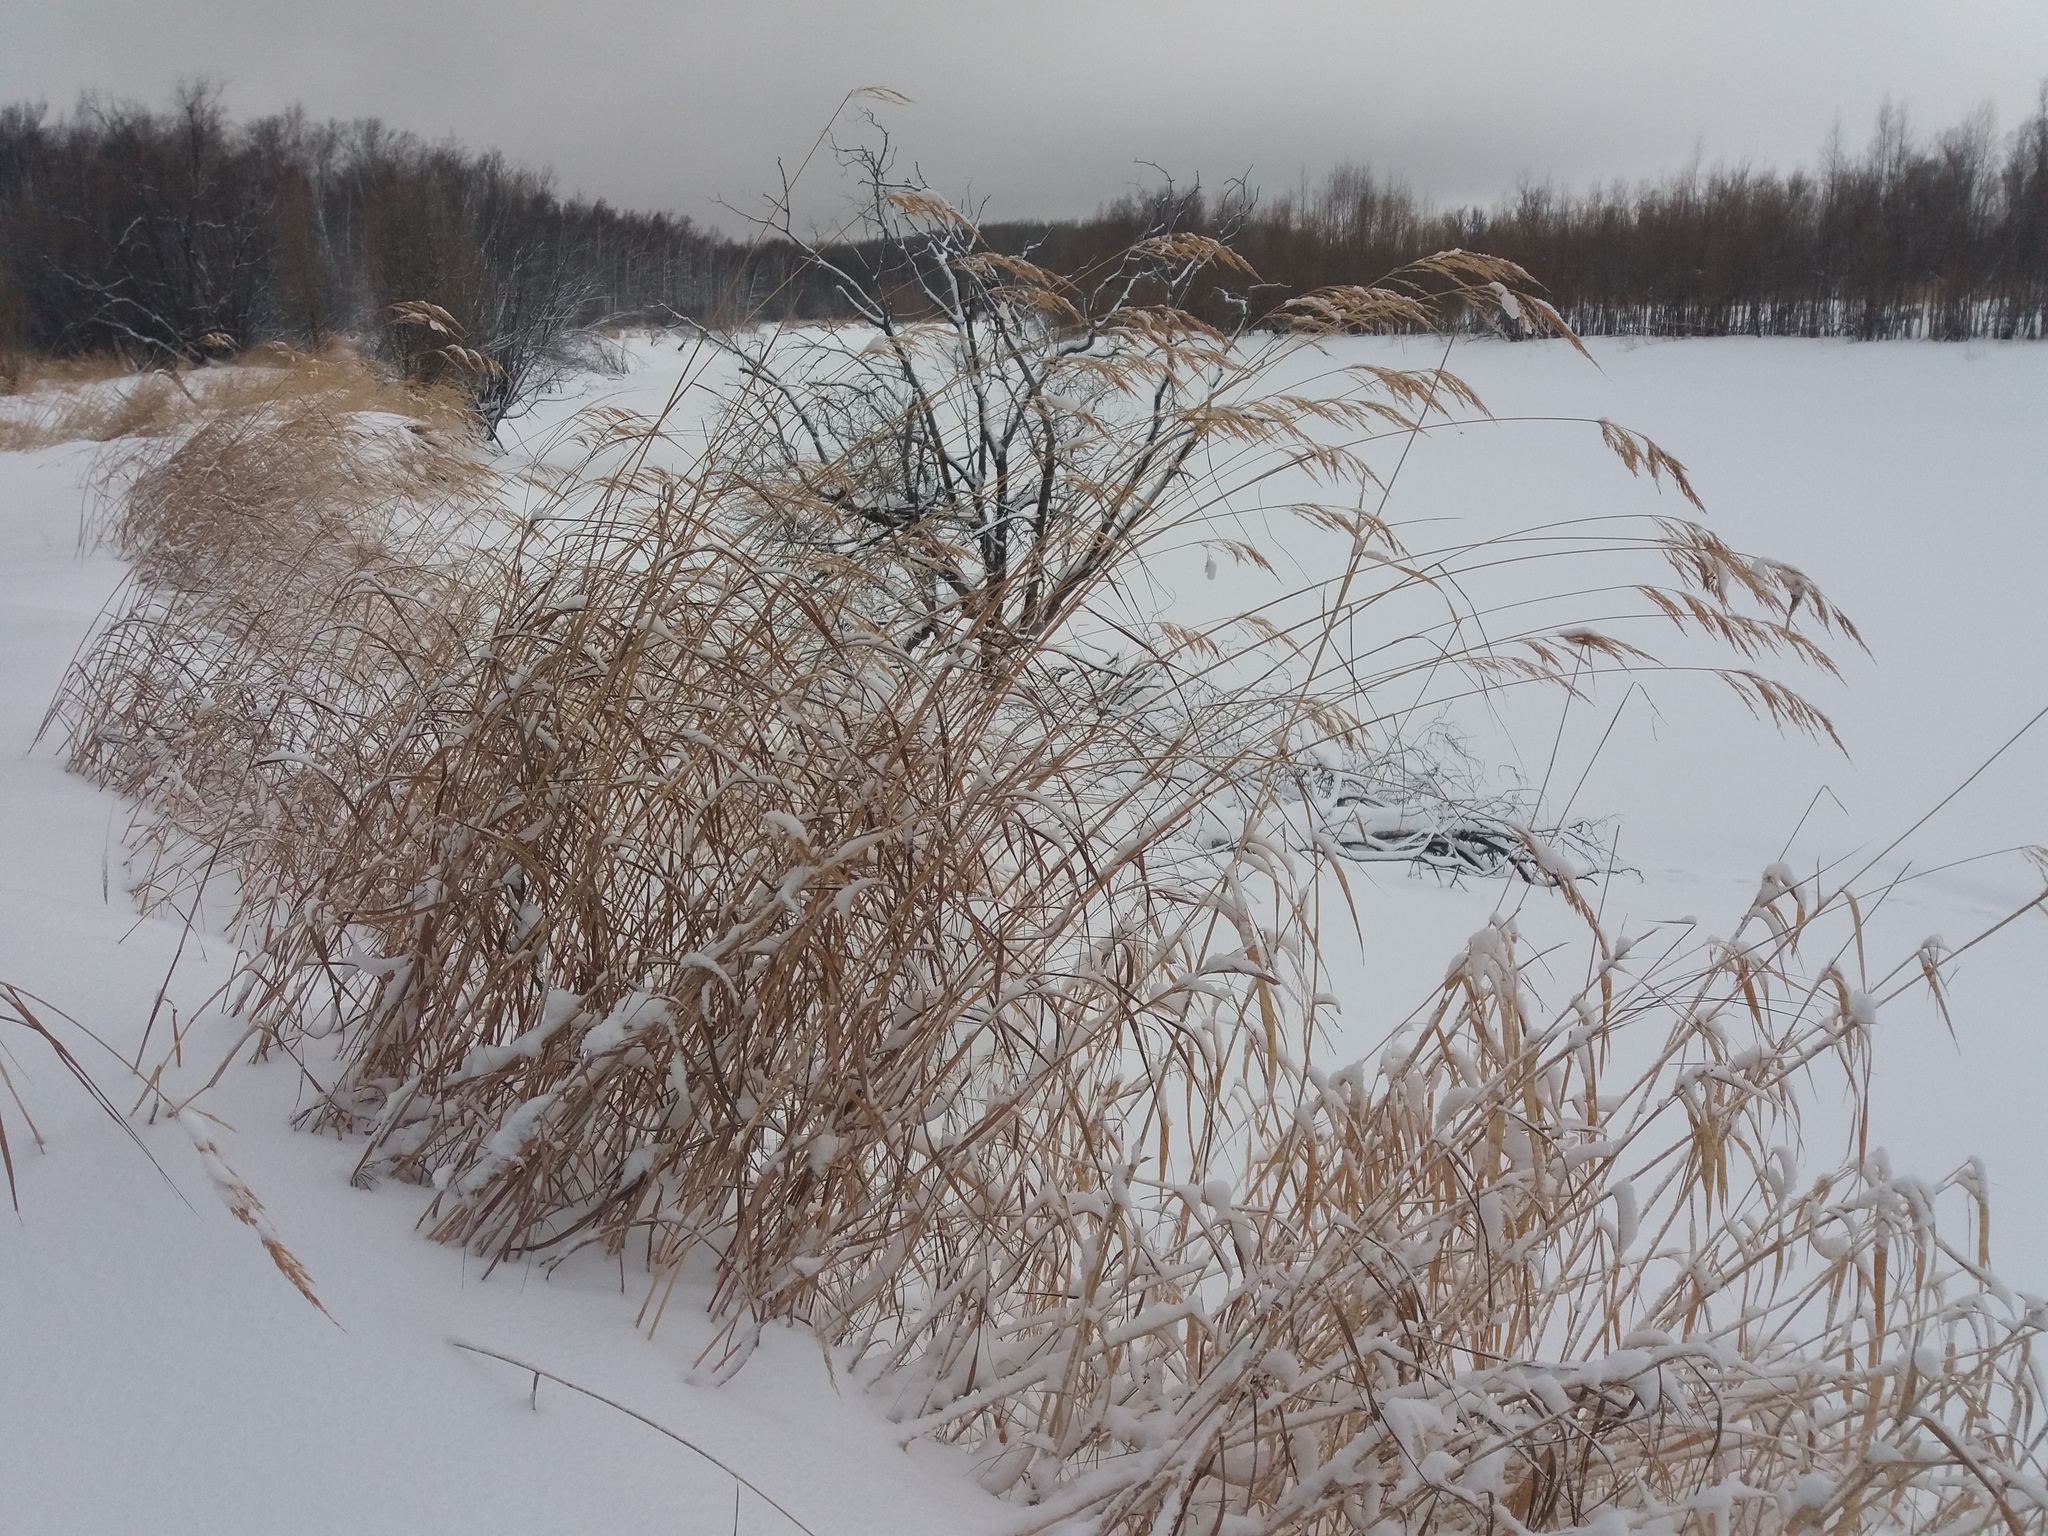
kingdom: Plantae
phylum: Tracheophyta
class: Liliopsida
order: Poales
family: Poaceae
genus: Calamagrostis
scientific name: Calamagrostis purpurea
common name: Scandinavian small-reed
